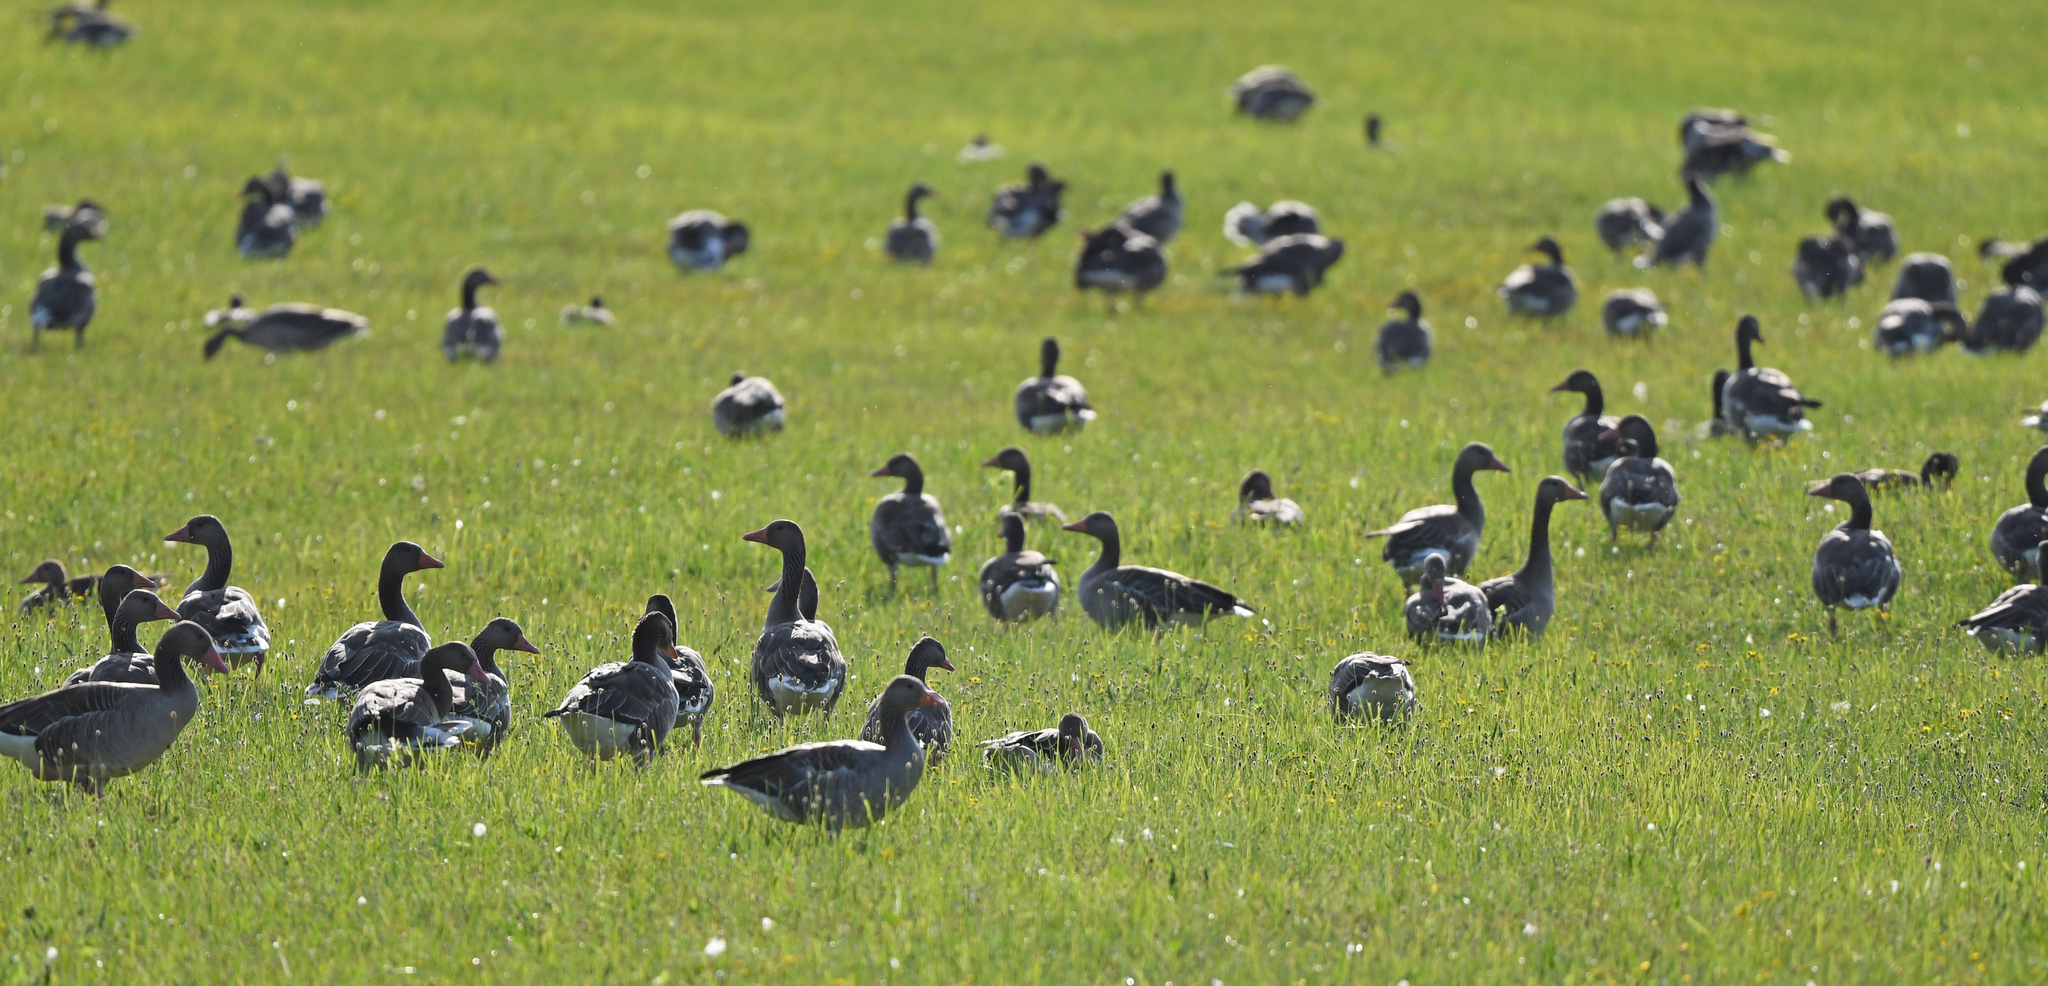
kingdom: Animalia
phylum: Chordata
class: Aves
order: Anseriformes
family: Anatidae
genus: Anser
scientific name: Anser anser
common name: Greylag goose
